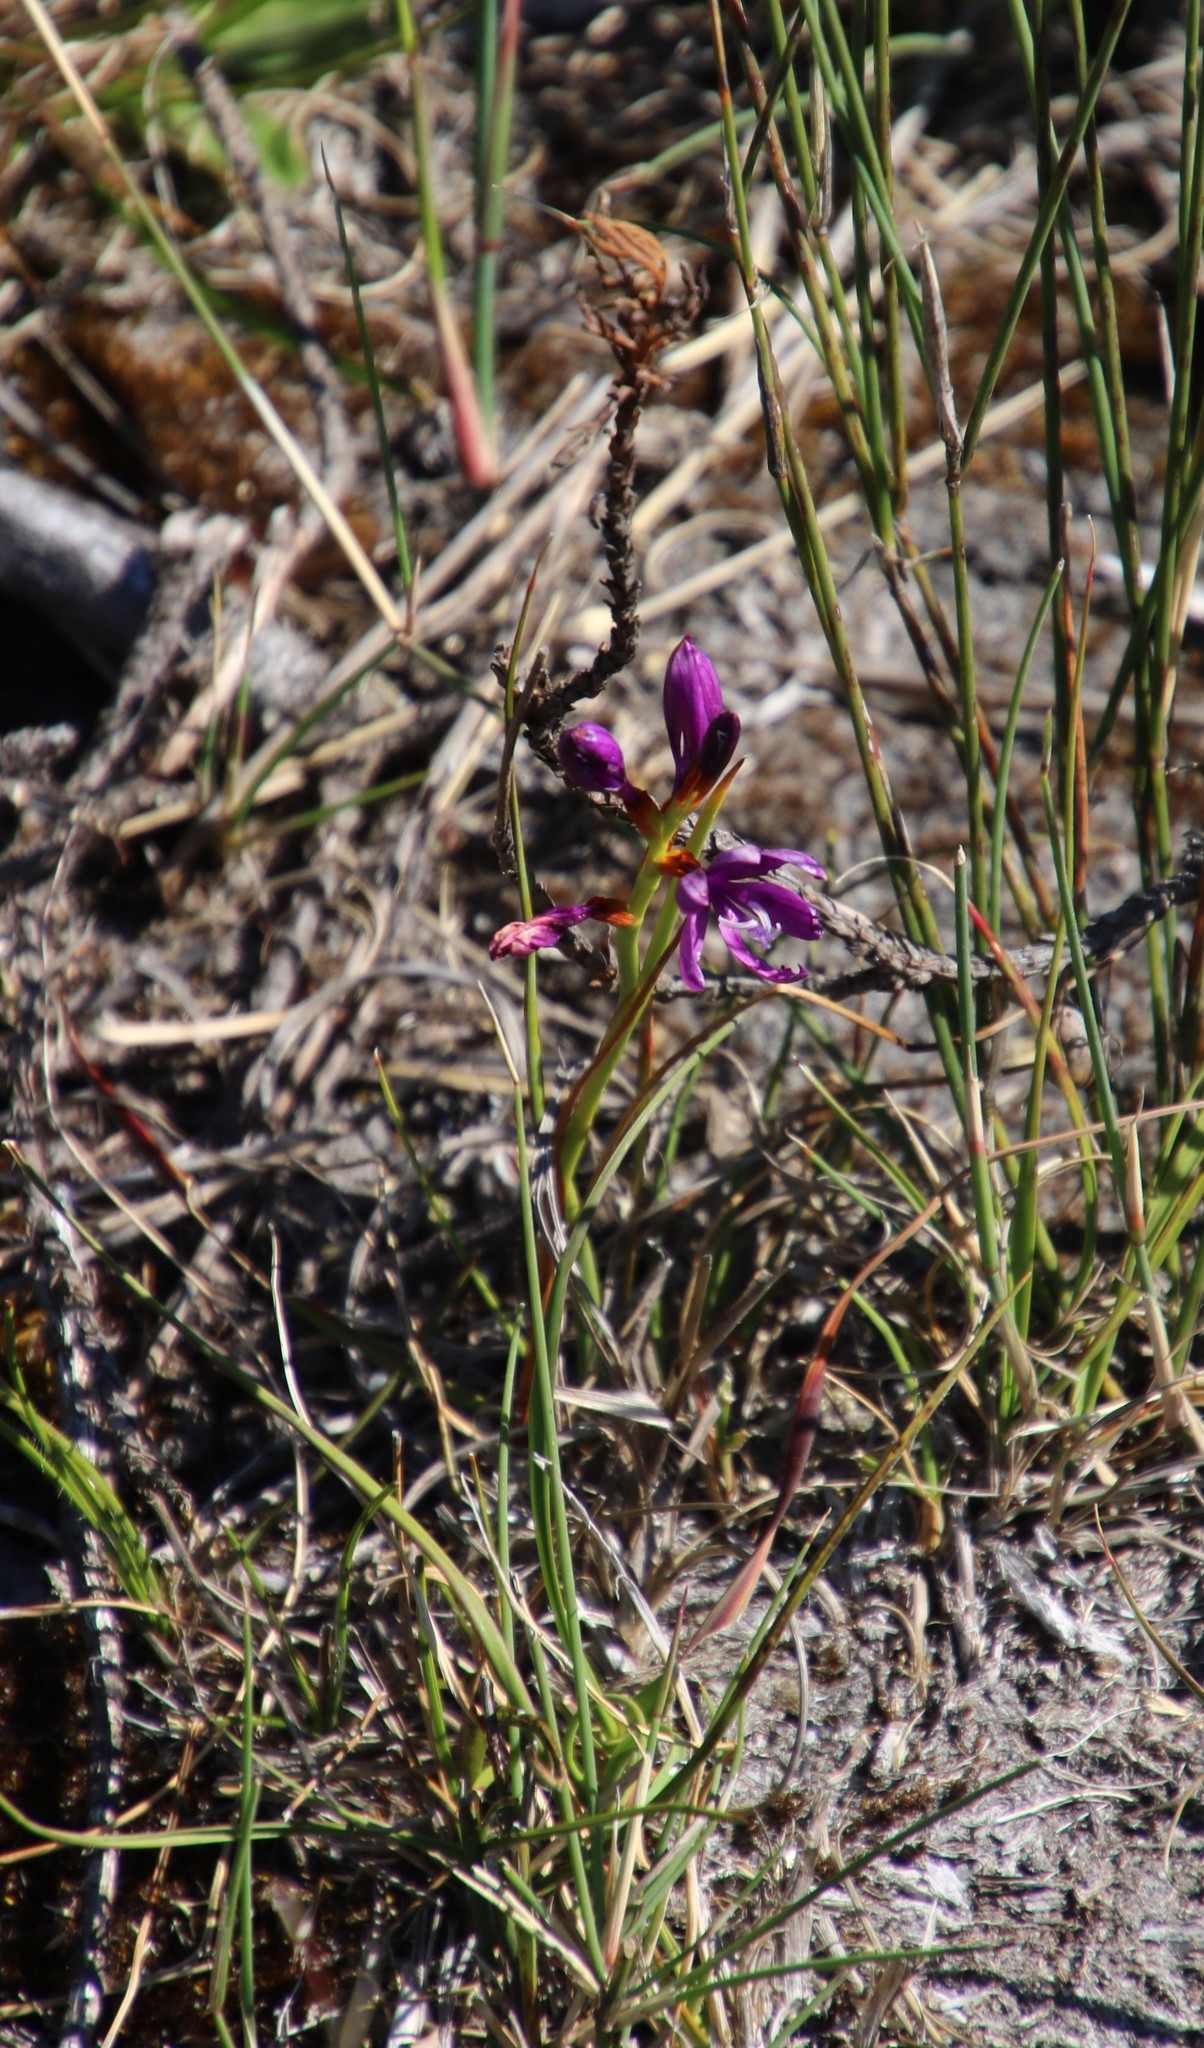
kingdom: Plantae
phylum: Tracheophyta
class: Liliopsida
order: Asparagales
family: Iridaceae
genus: Thereianthus
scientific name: Thereianthus bracteolatus
